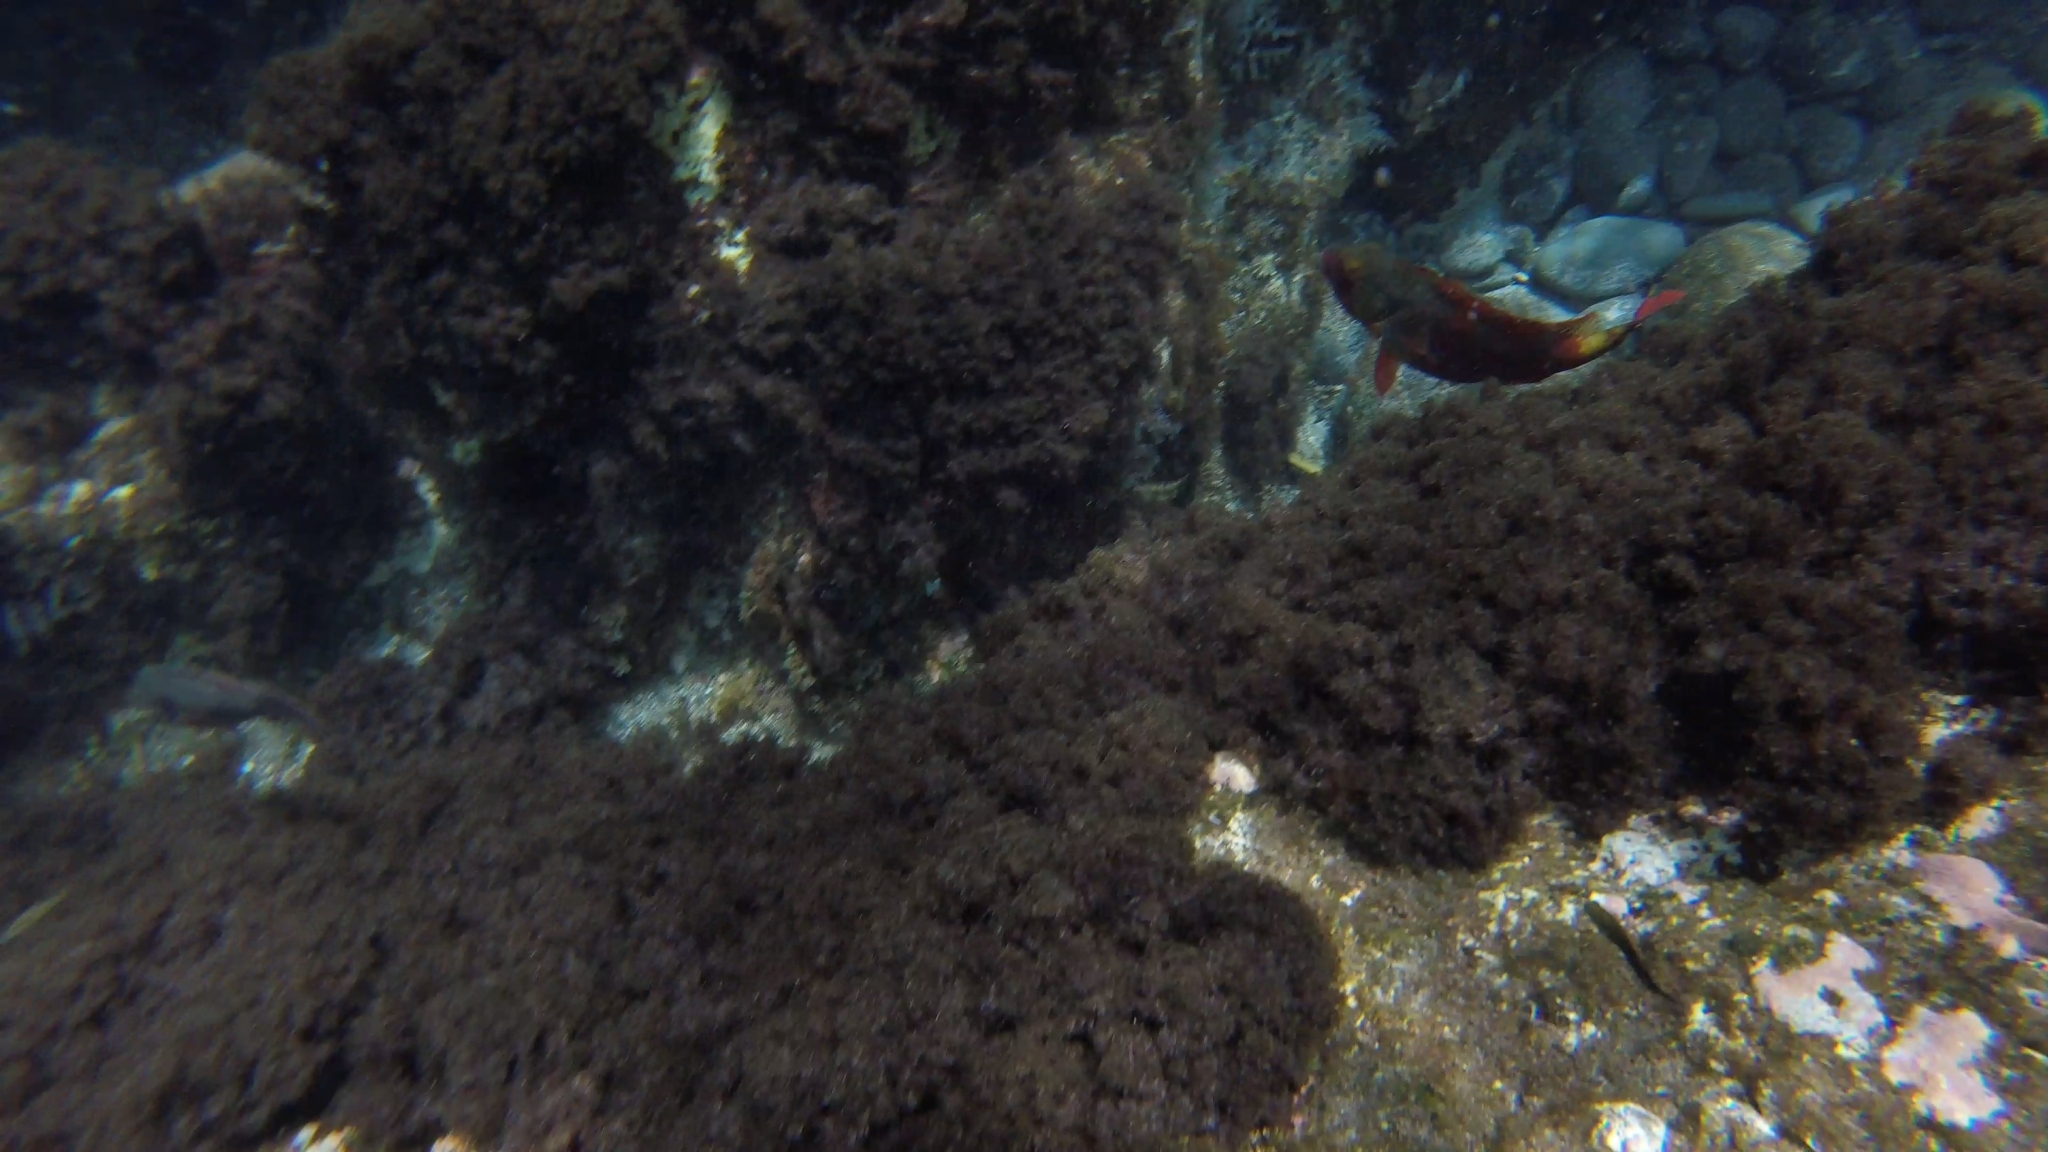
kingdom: Animalia
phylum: Chordata
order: Perciformes
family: Scaridae
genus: Sparisoma
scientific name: Sparisoma cretense
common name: Parrotfish
